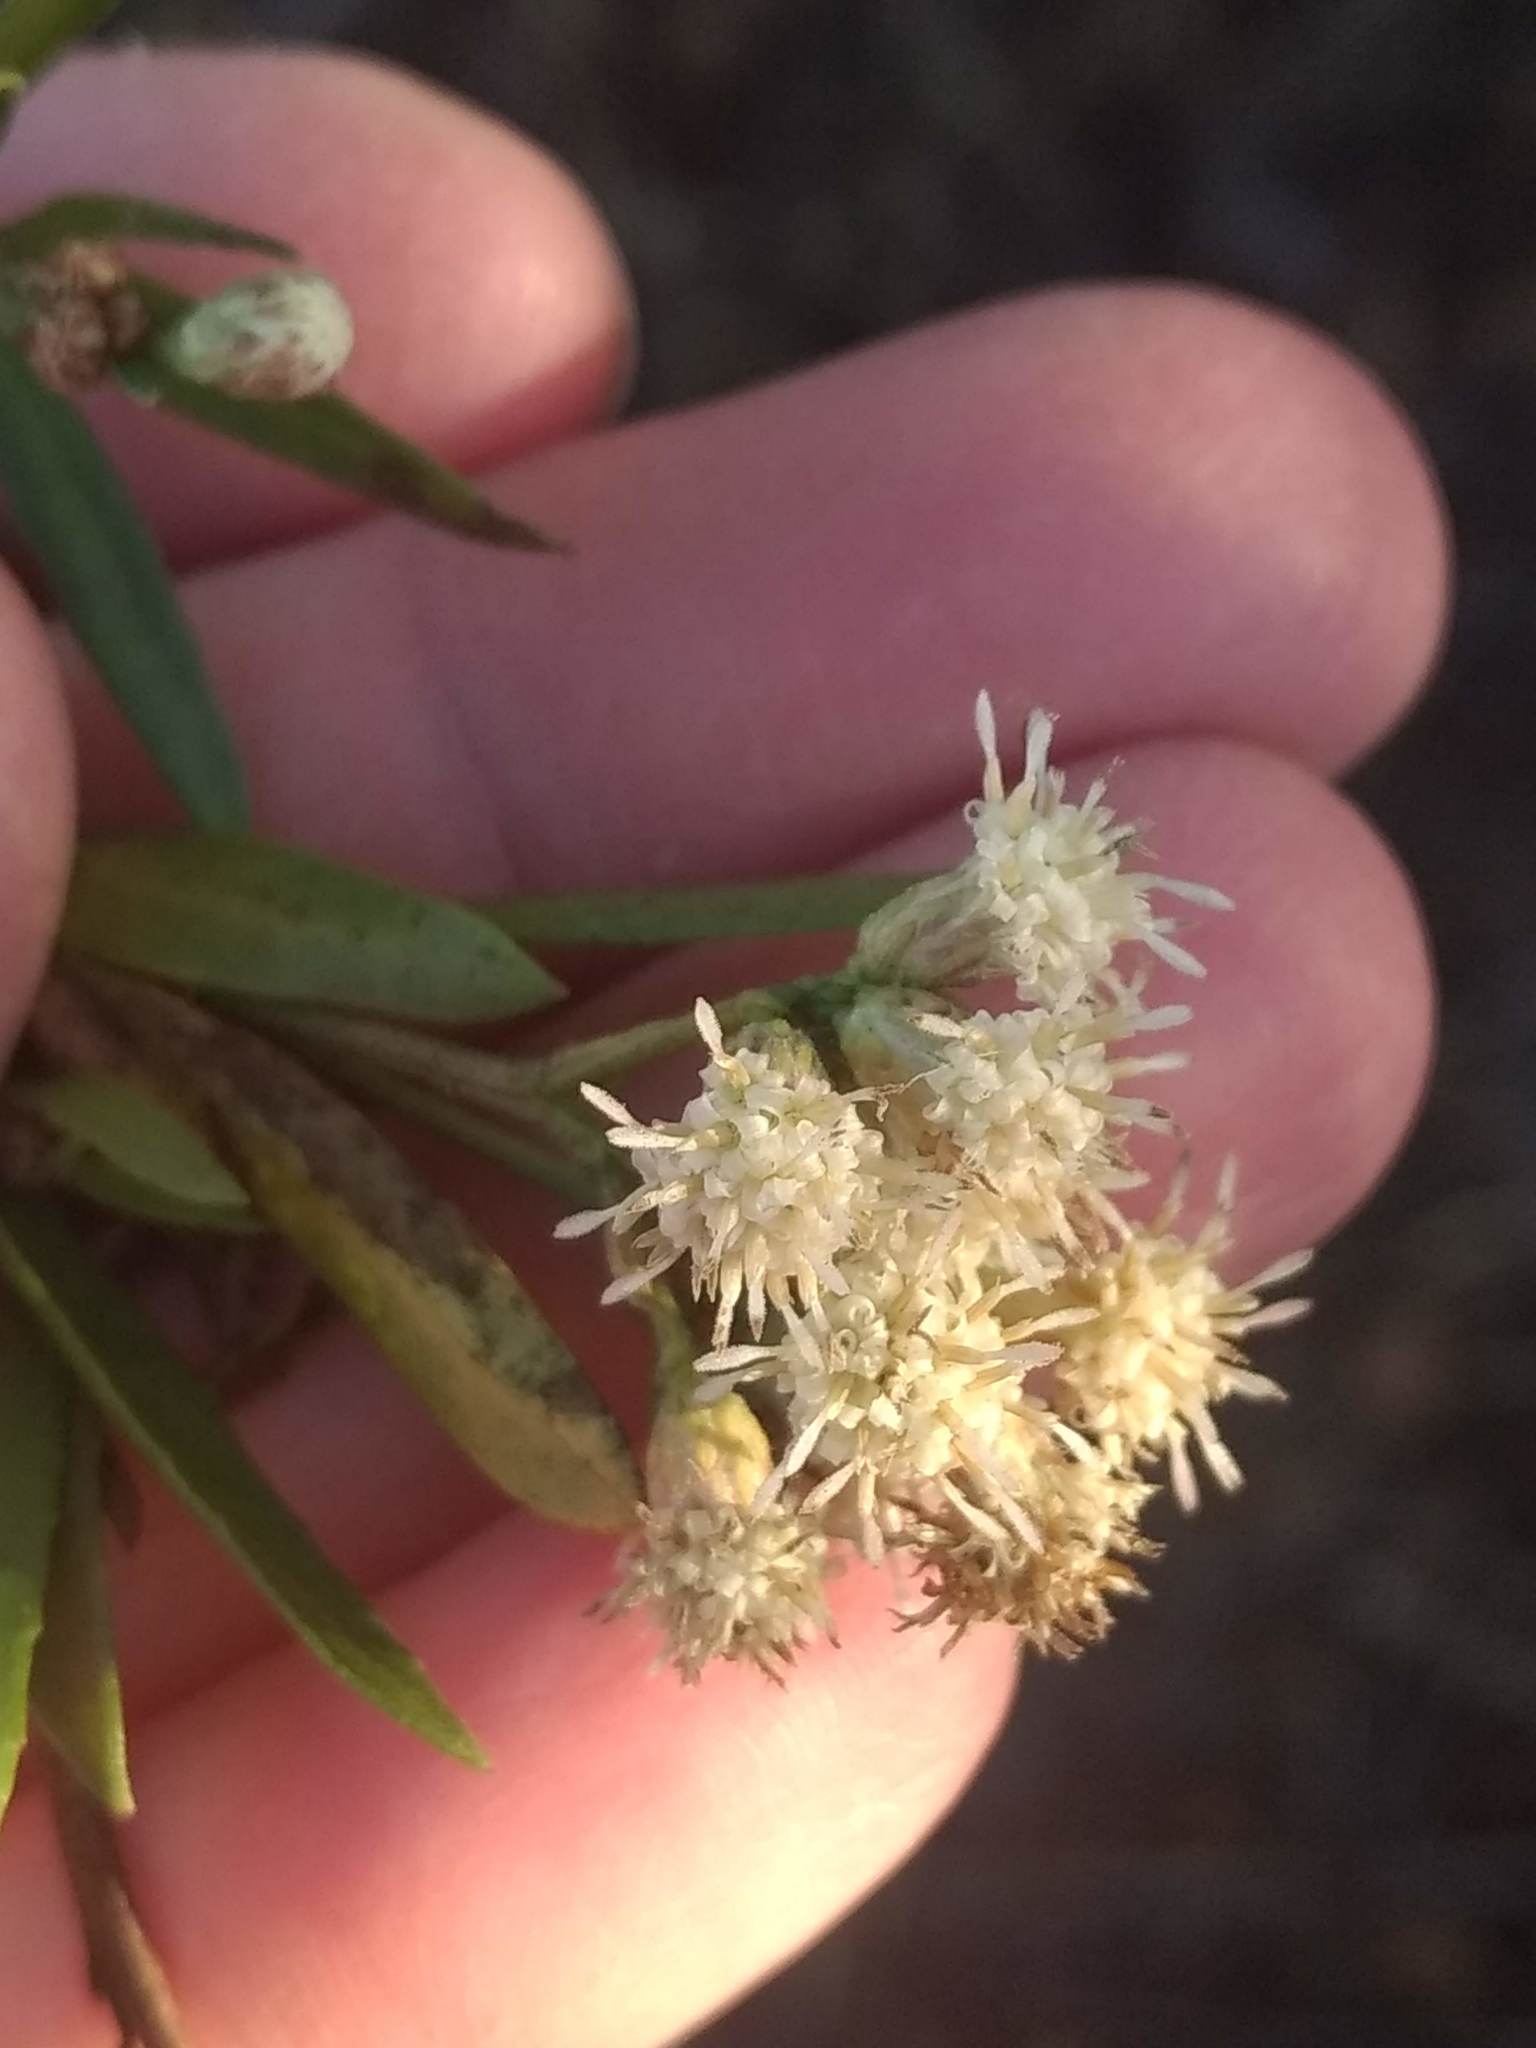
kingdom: Plantae
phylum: Tracheophyta
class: Magnoliopsida
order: Asterales
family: Asteraceae
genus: Baccharis
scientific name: Baccharis salicifolia
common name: Sticky baccharis
